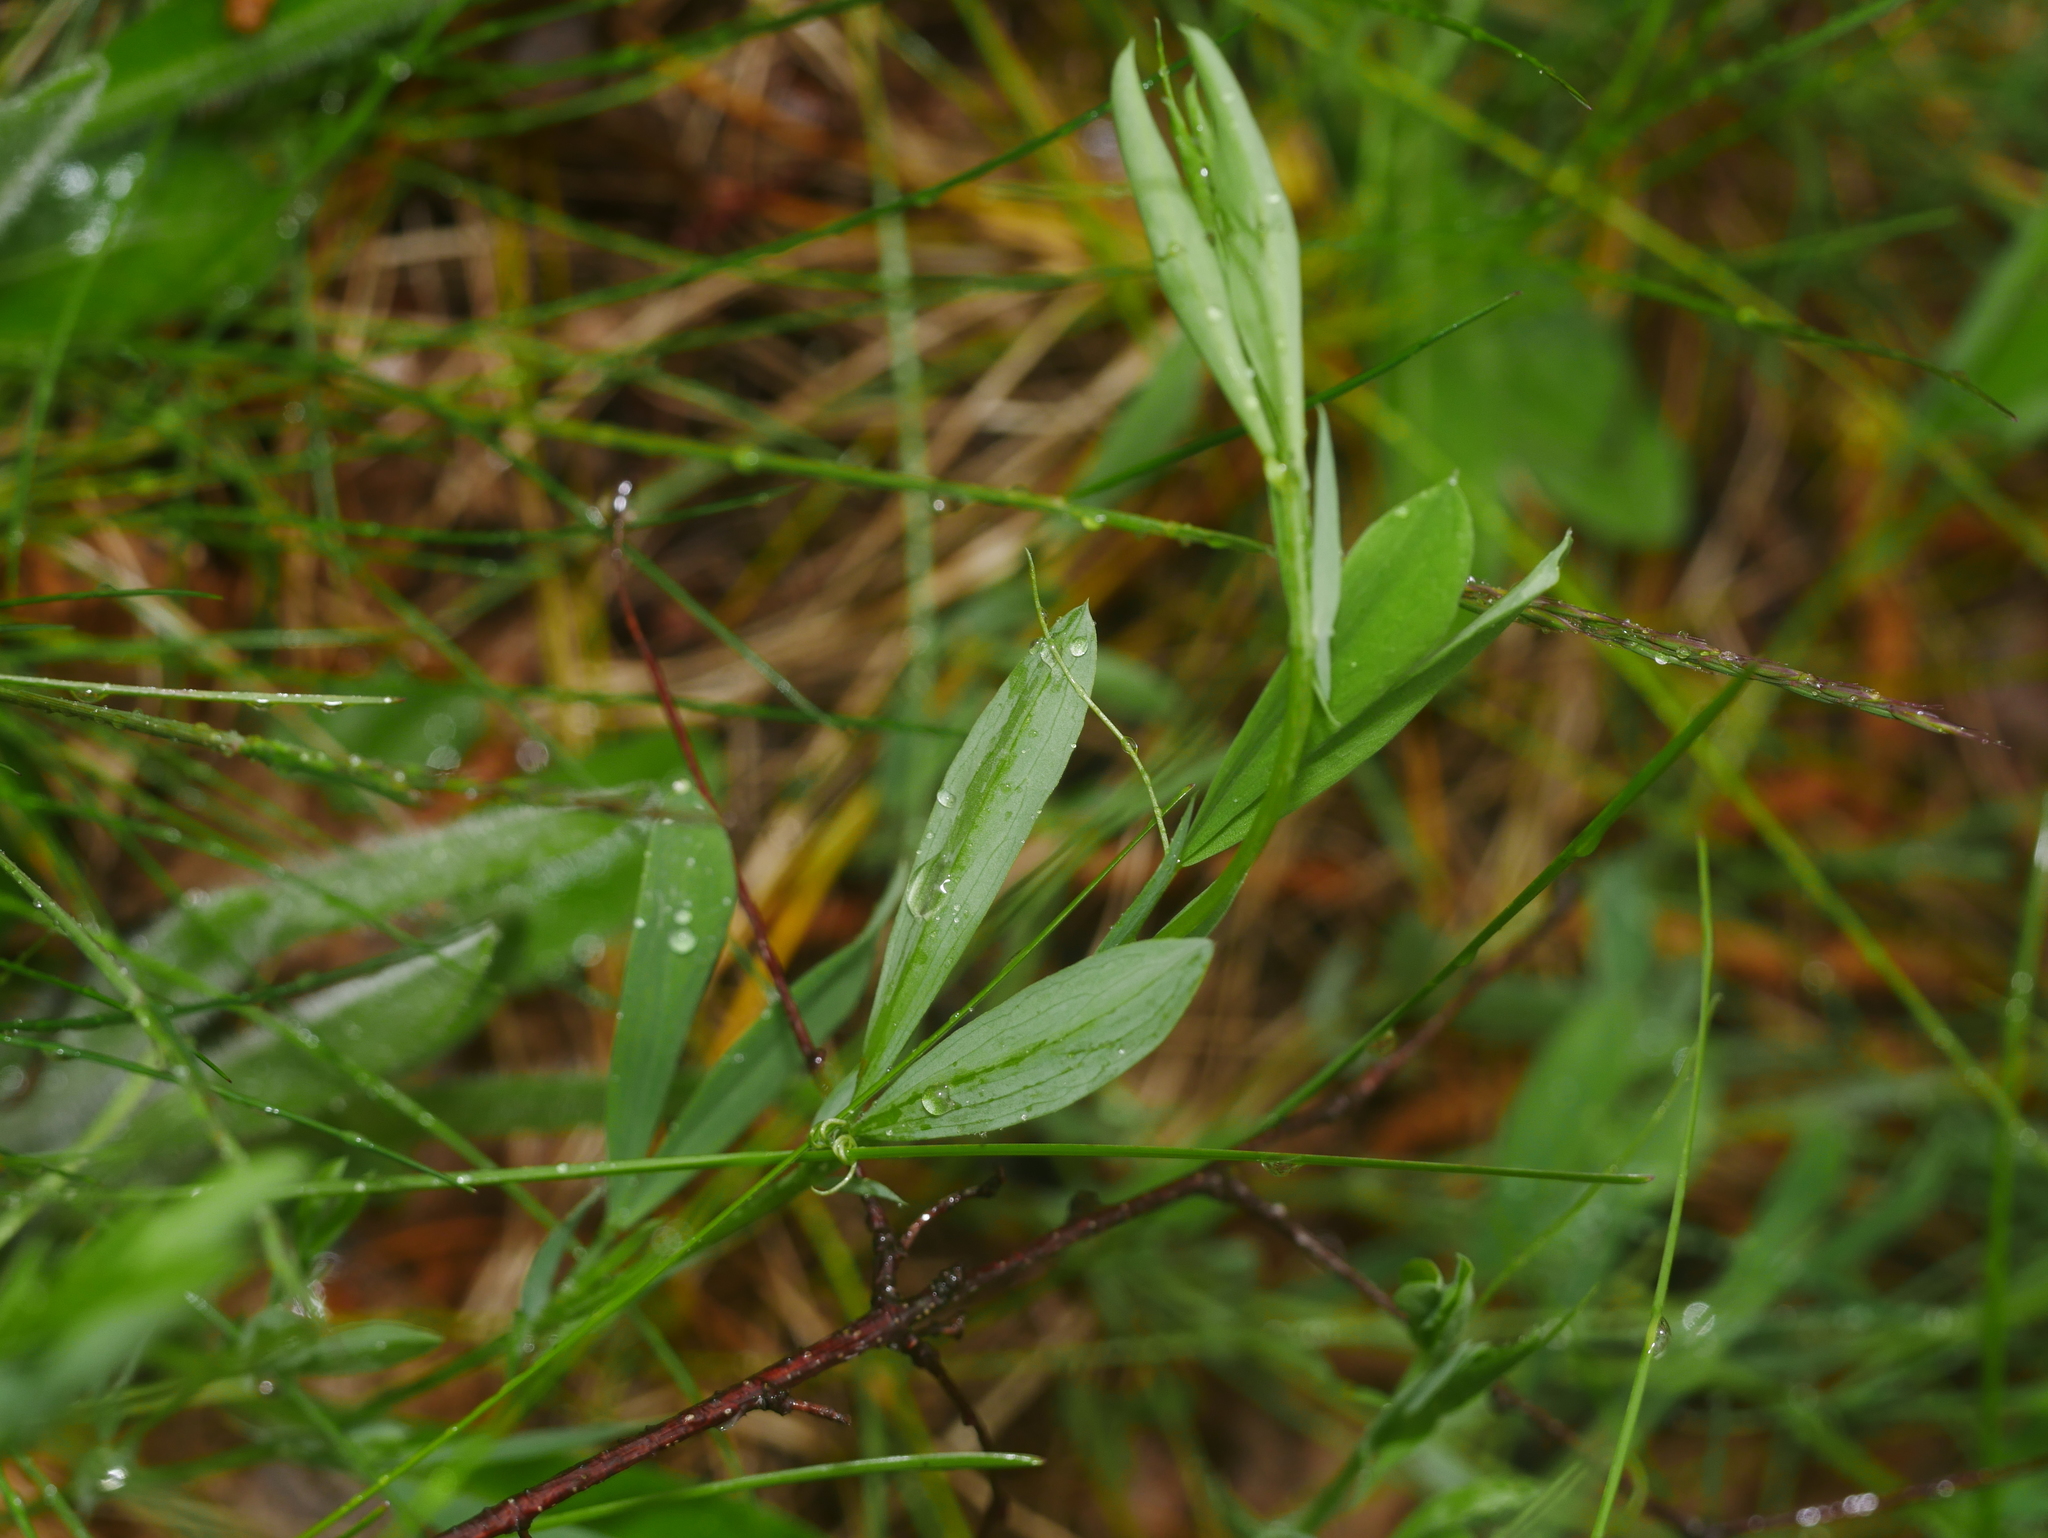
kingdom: Plantae
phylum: Tracheophyta
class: Magnoliopsida
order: Fabales
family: Fabaceae
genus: Lathyrus
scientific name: Lathyrus tuberosus
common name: Tuberous pea
